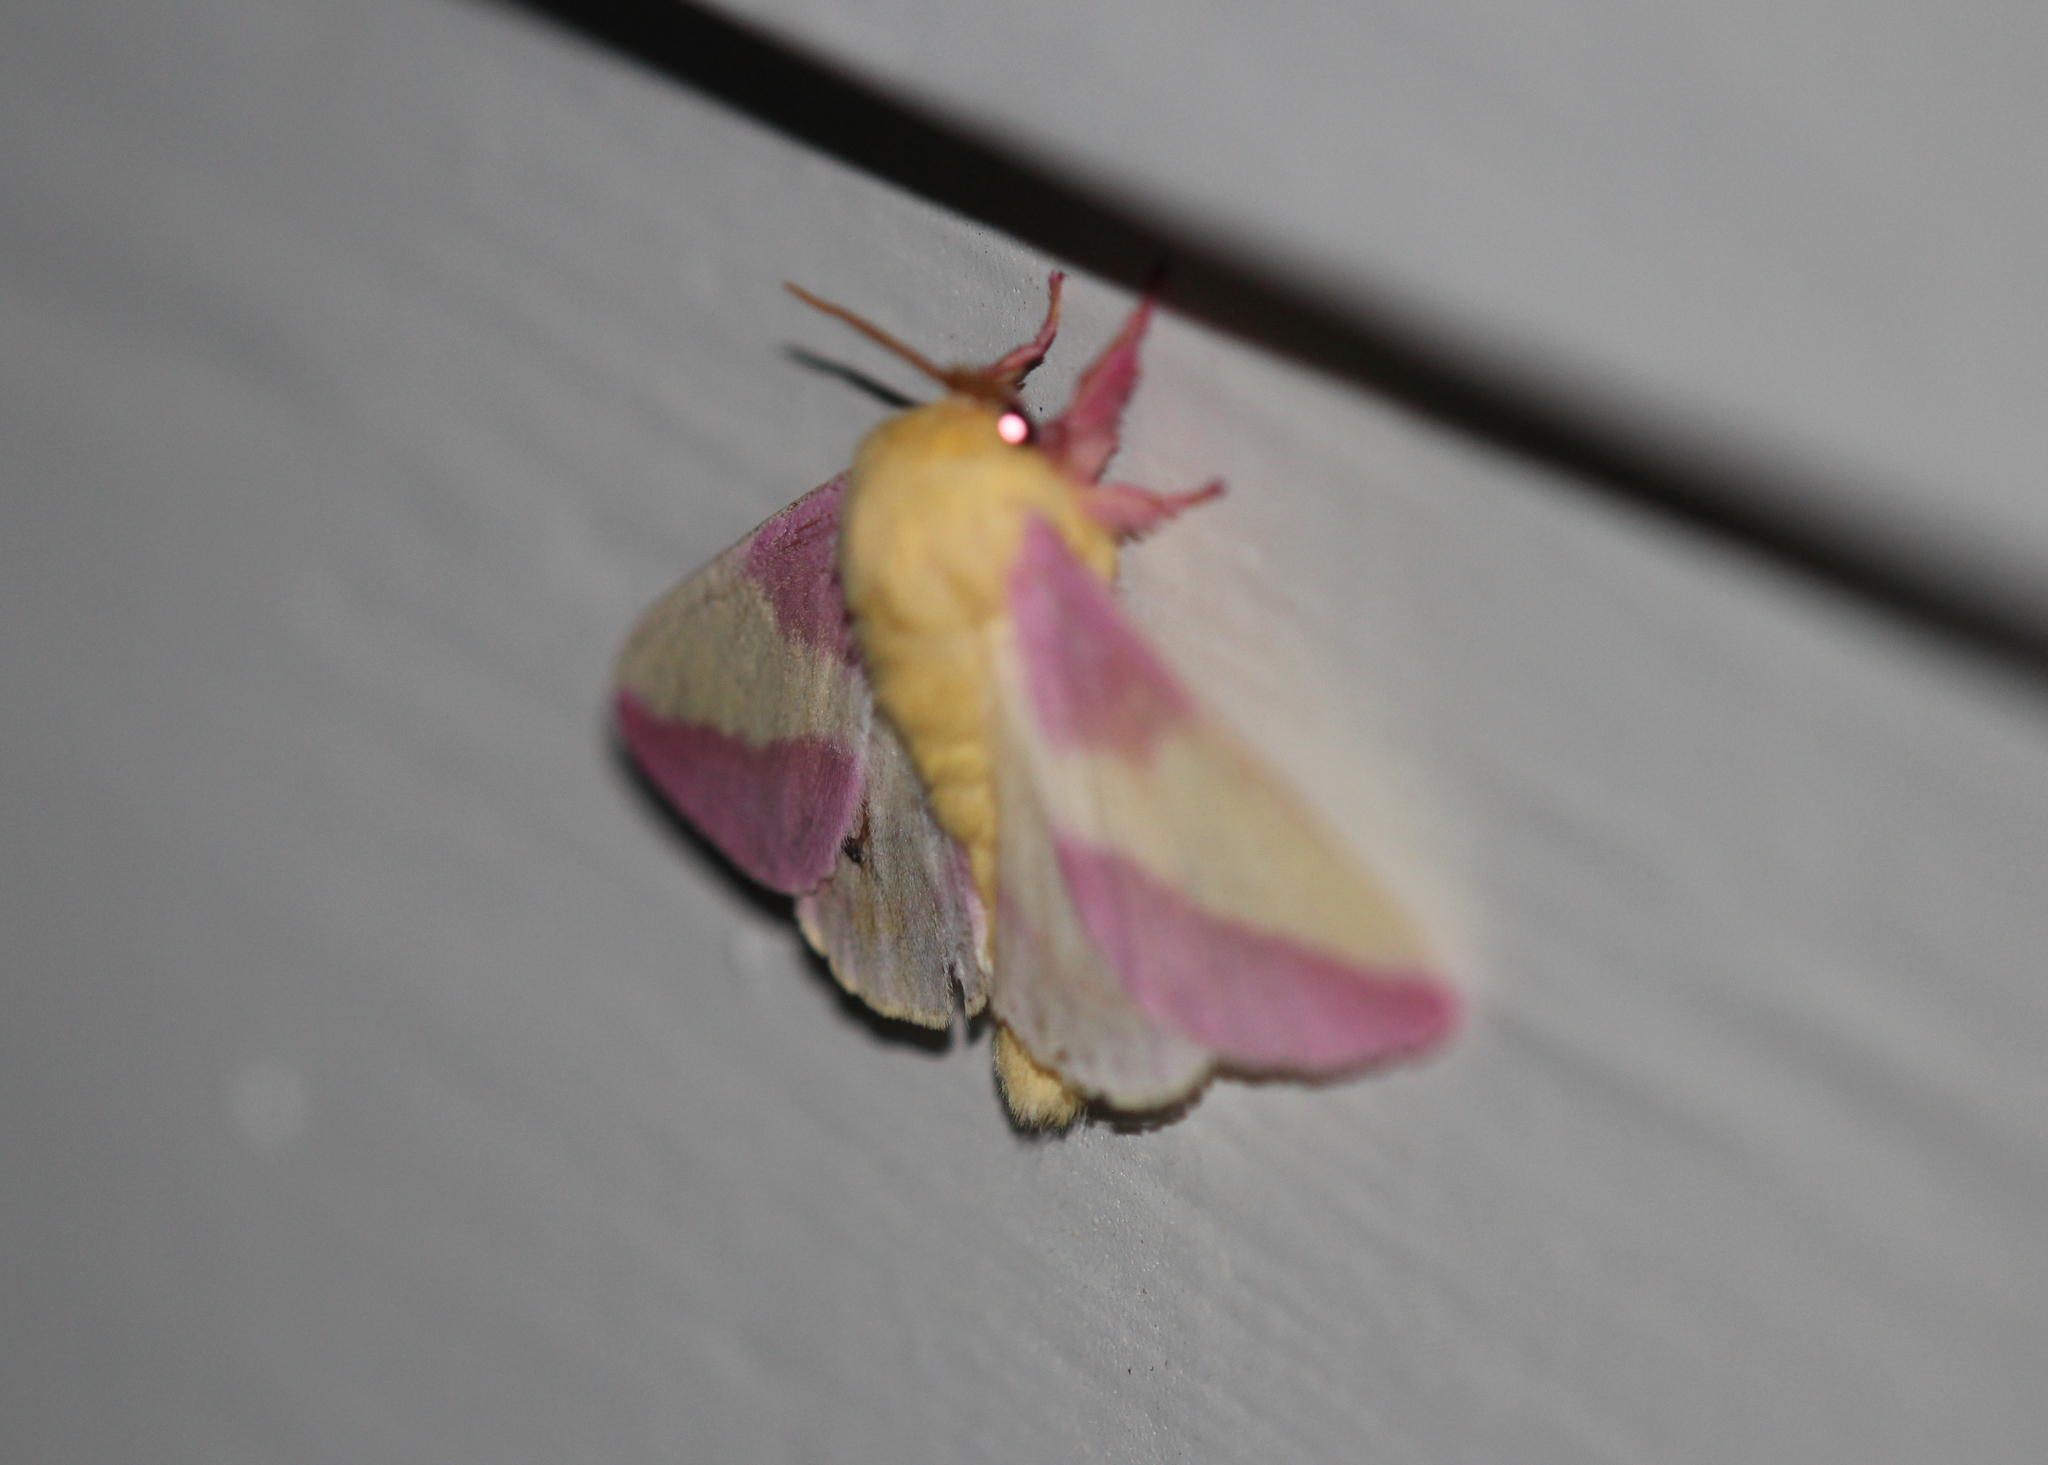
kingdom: Animalia
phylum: Arthropoda
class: Insecta
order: Lepidoptera
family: Saturniidae
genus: Dryocampa
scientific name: Dryocampa rubicunda
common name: Rosy maple moth
